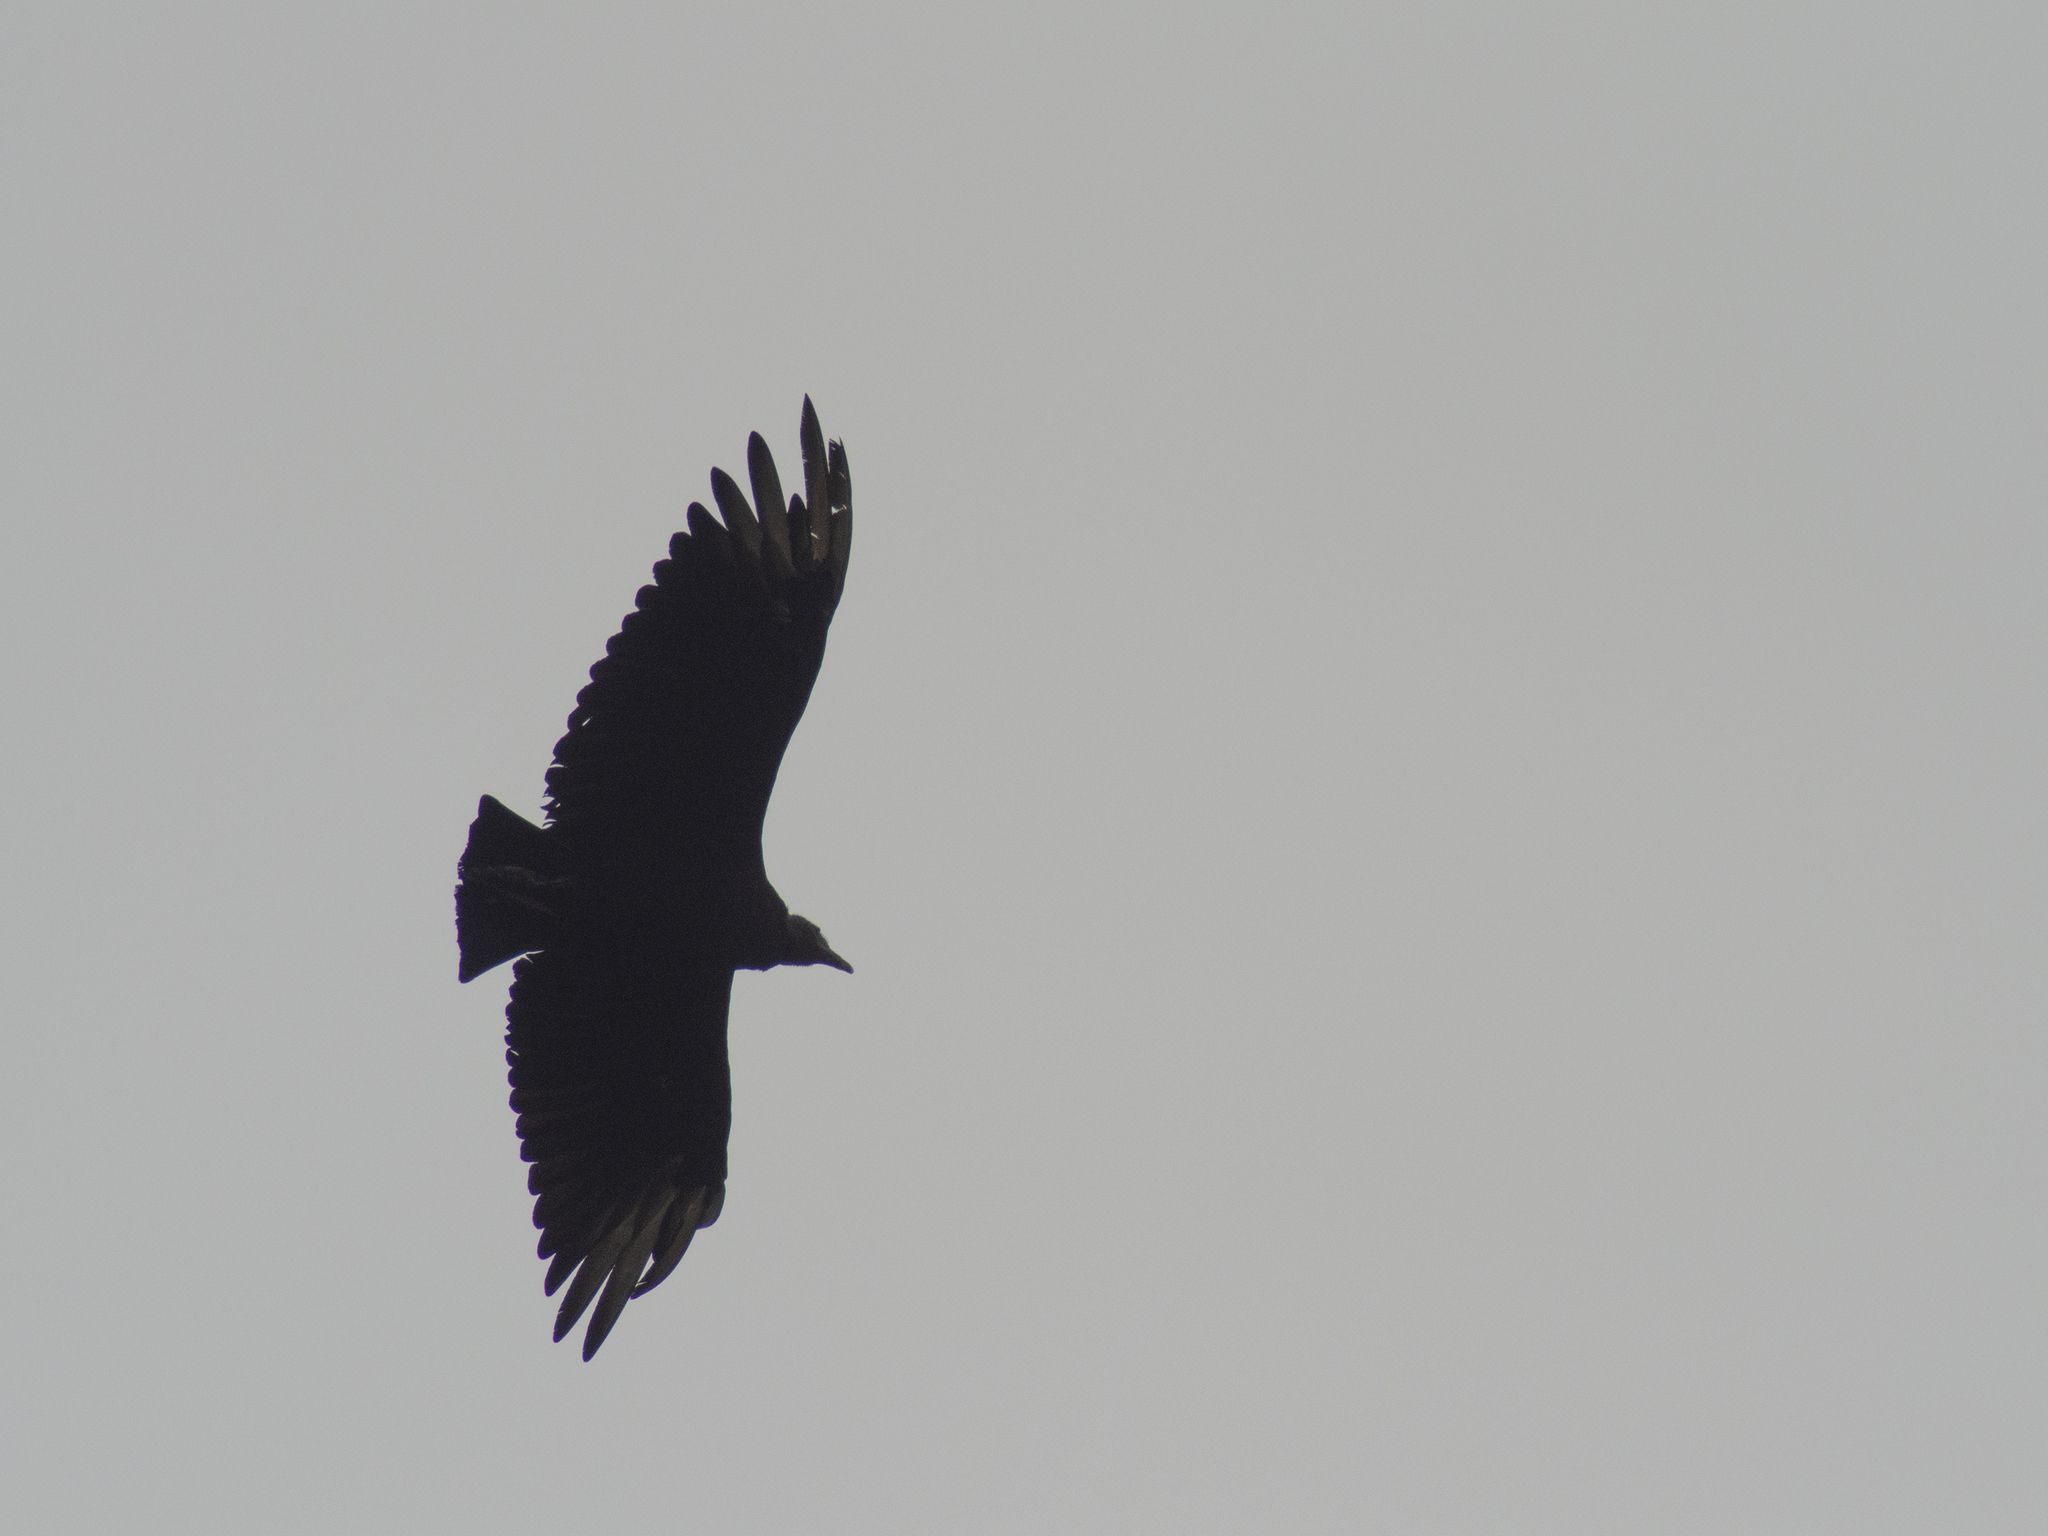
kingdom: Animalia
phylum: Chordata
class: Aves
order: Accipitriformes
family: Cathartidae
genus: Coragyps
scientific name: Coragyps atratus
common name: Black vulture
